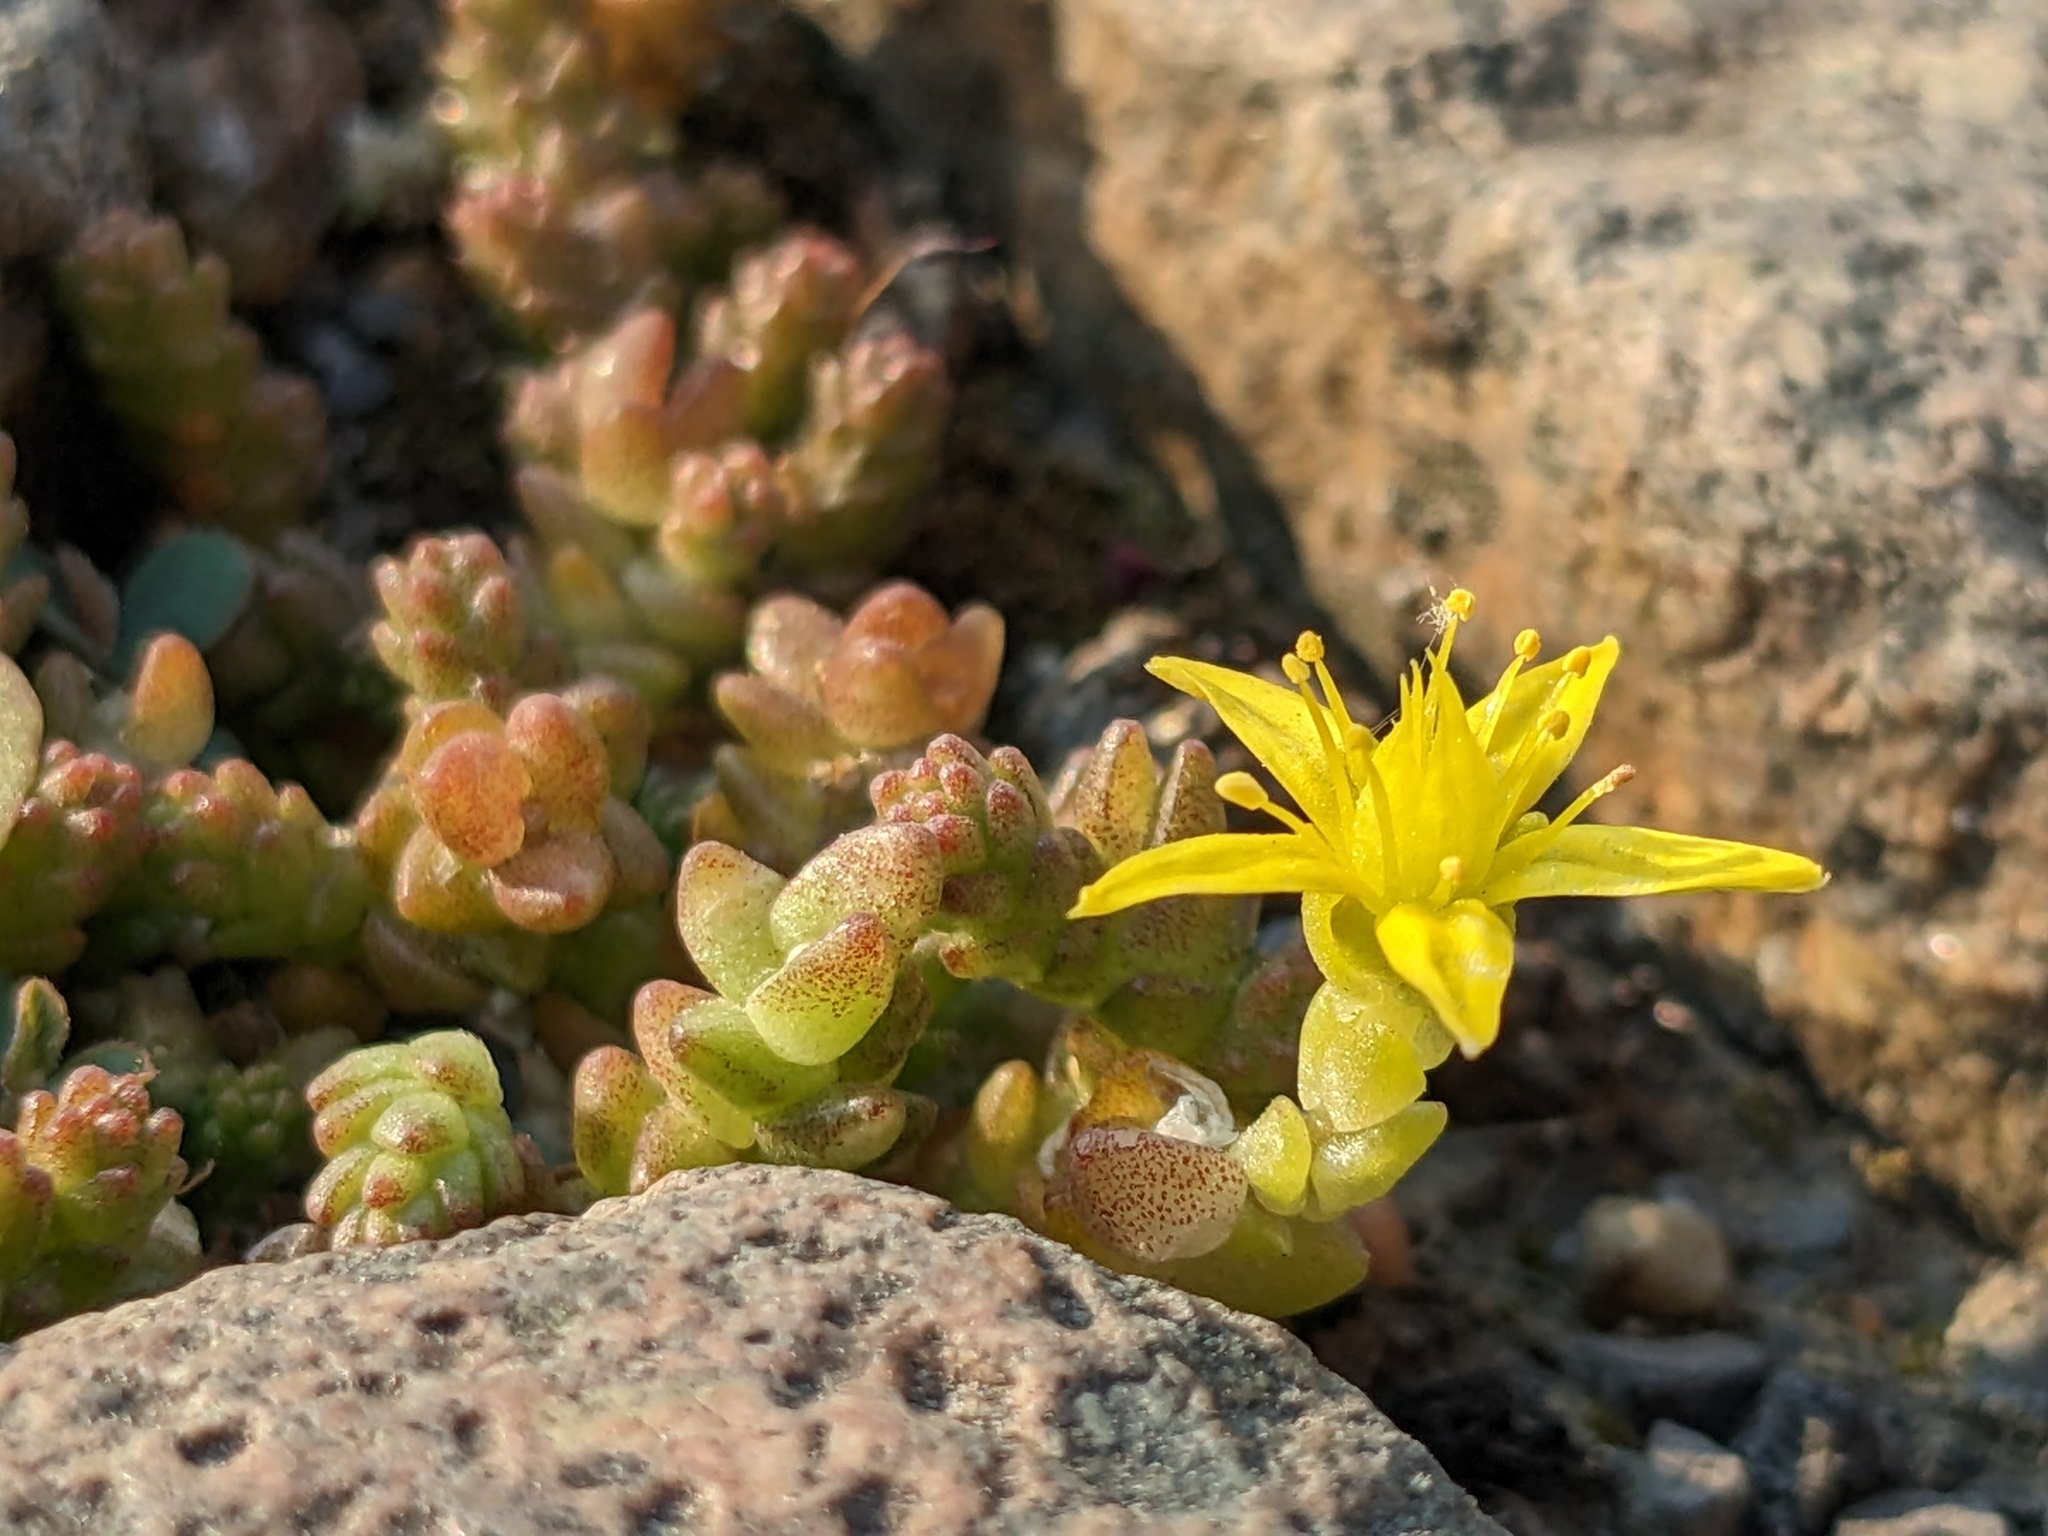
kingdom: Plantae
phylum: Tracheophyta
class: Magnoliopsida
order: Saxifragales
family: Crassulaceae
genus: Sedum
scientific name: Sedum acre
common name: Biting stonecrop
